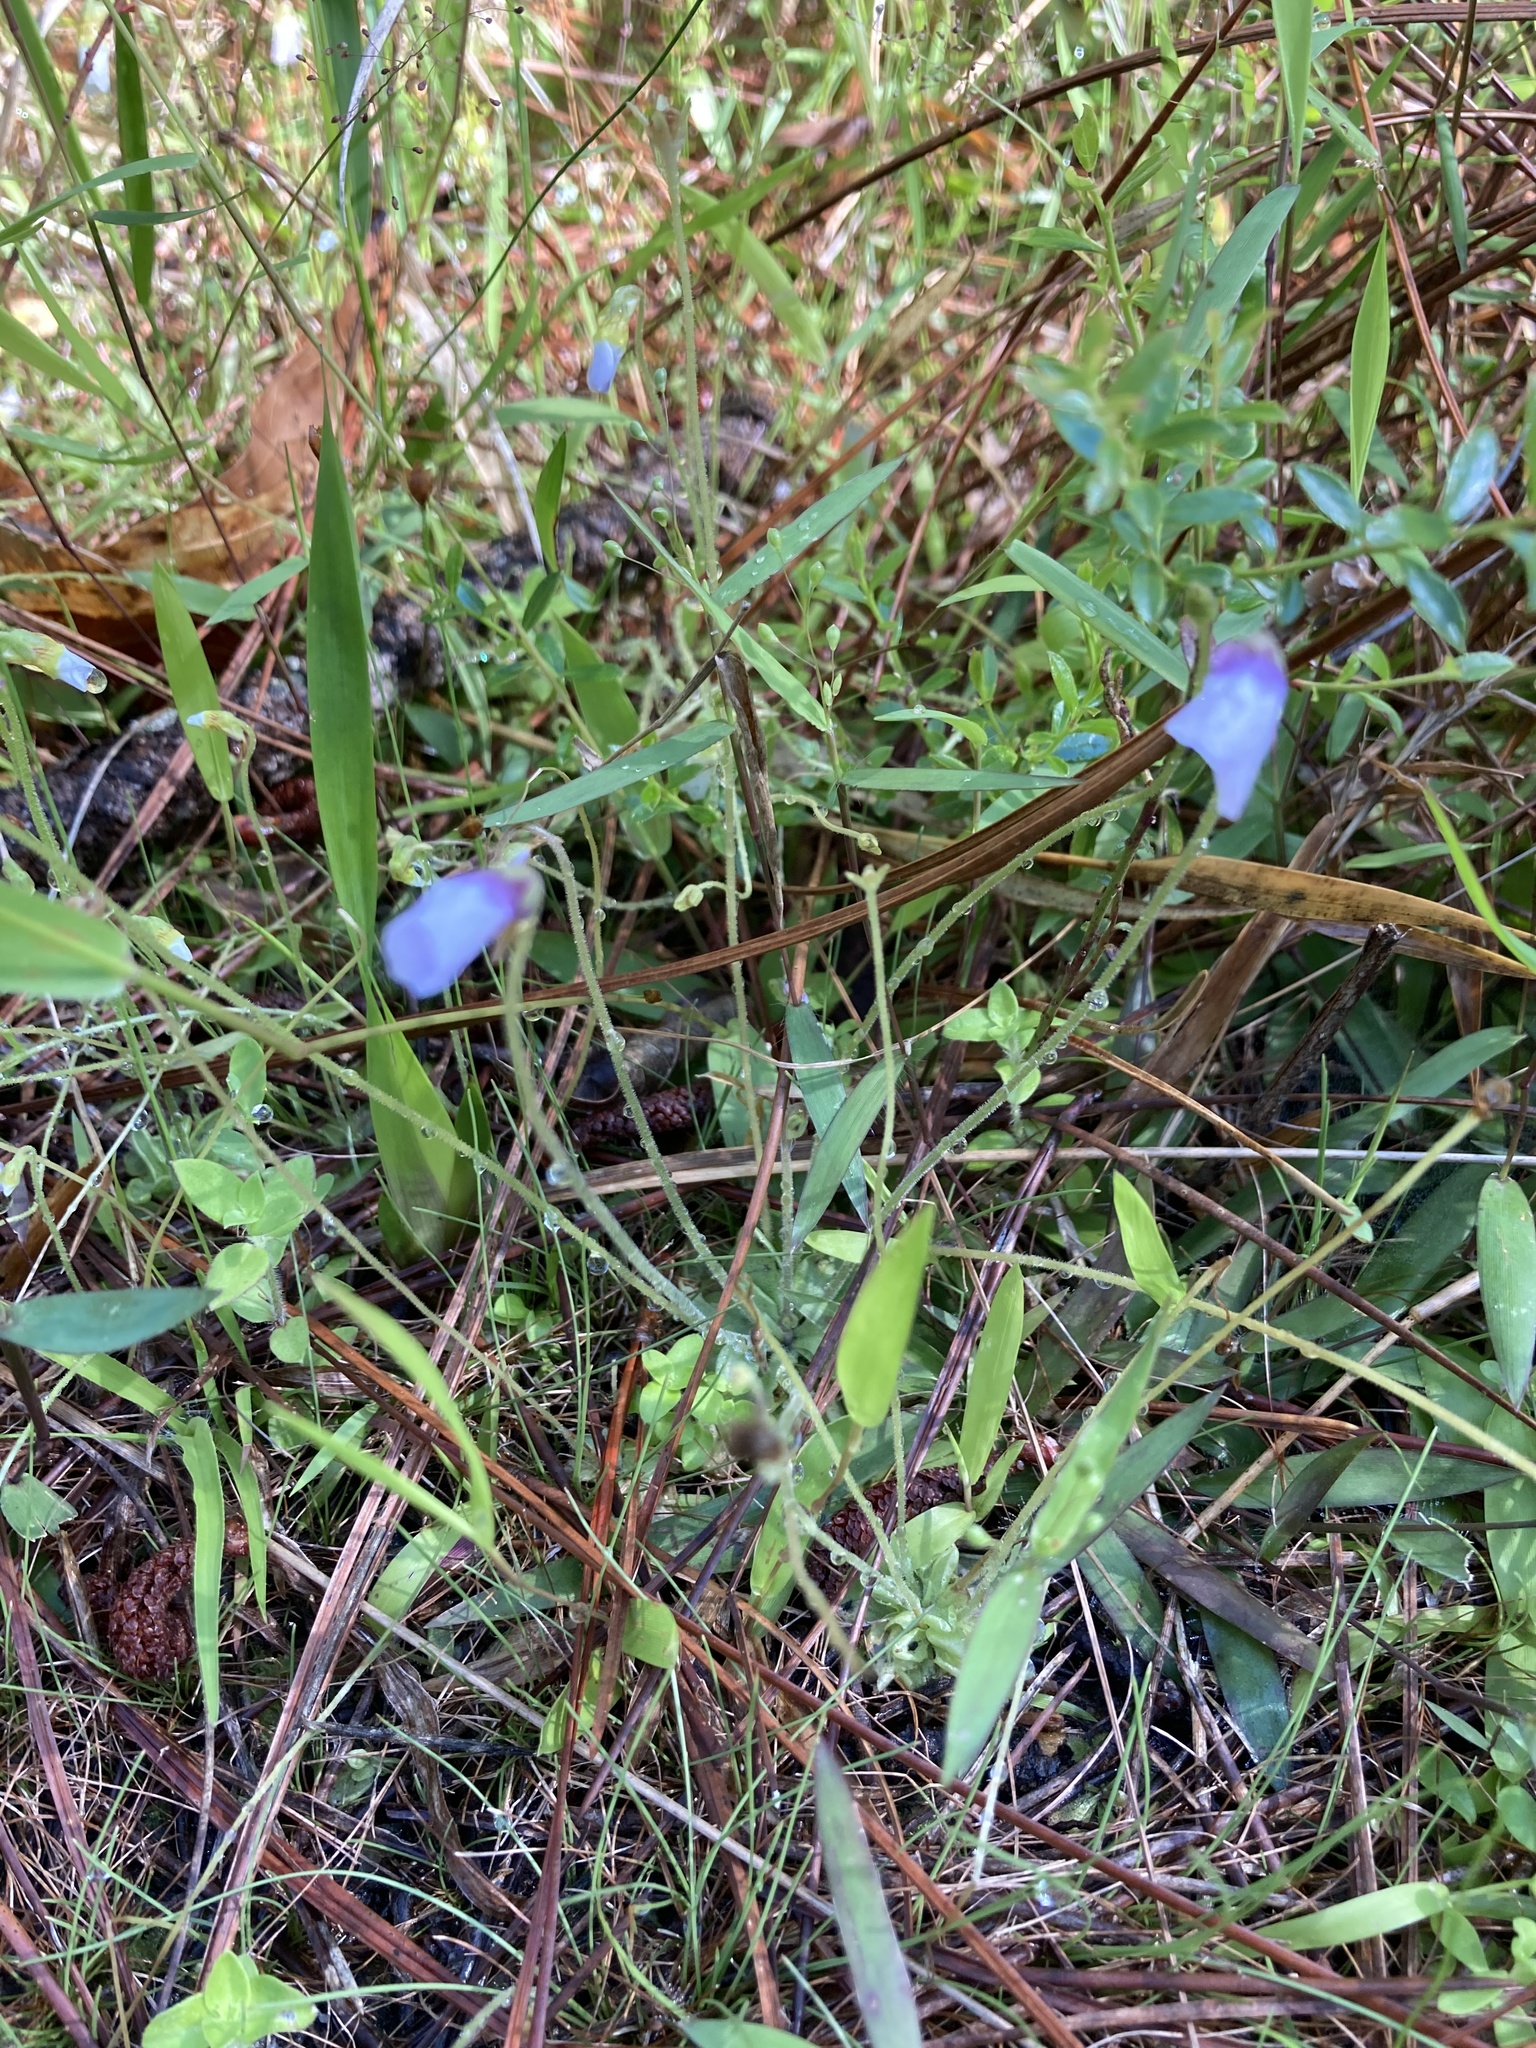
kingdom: Plantae
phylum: Tracheophyta
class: Magnoliopsida
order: Lamiales
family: Lentibulariaceae
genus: Pinguicula
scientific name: Pinguicula pumila
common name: Small butterwort
